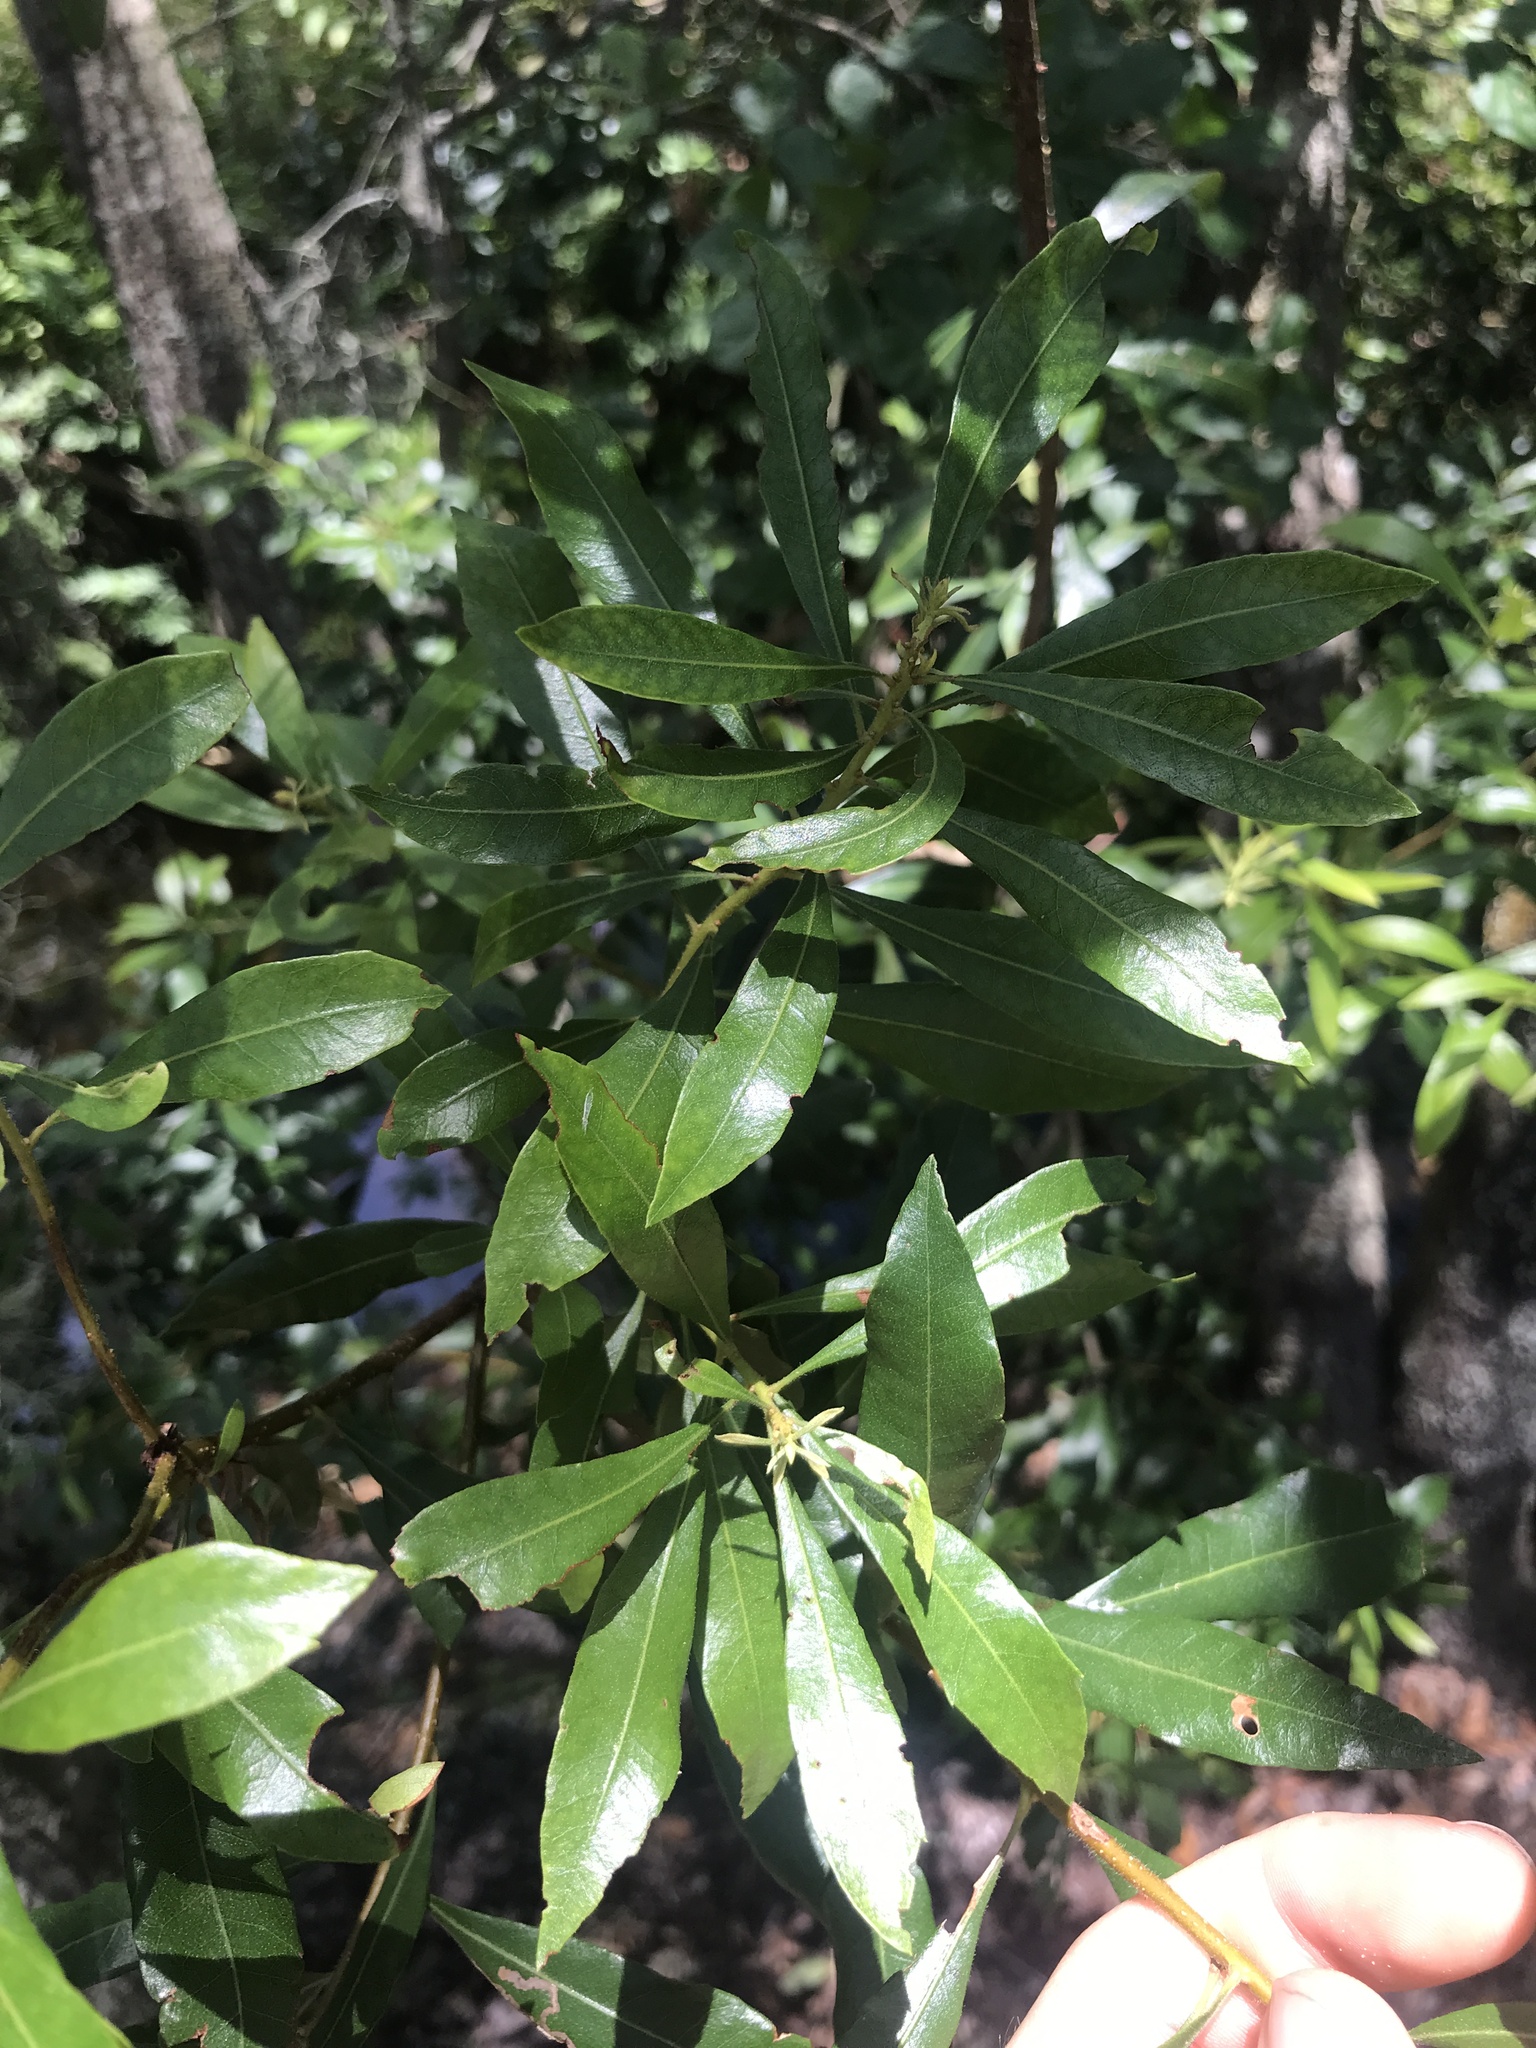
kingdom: Plantae
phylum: Tracheophyta
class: Magnoliopsida
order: Fagales
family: Myricaceae
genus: Morella
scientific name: Morella cerifera
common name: Wax myrtle
